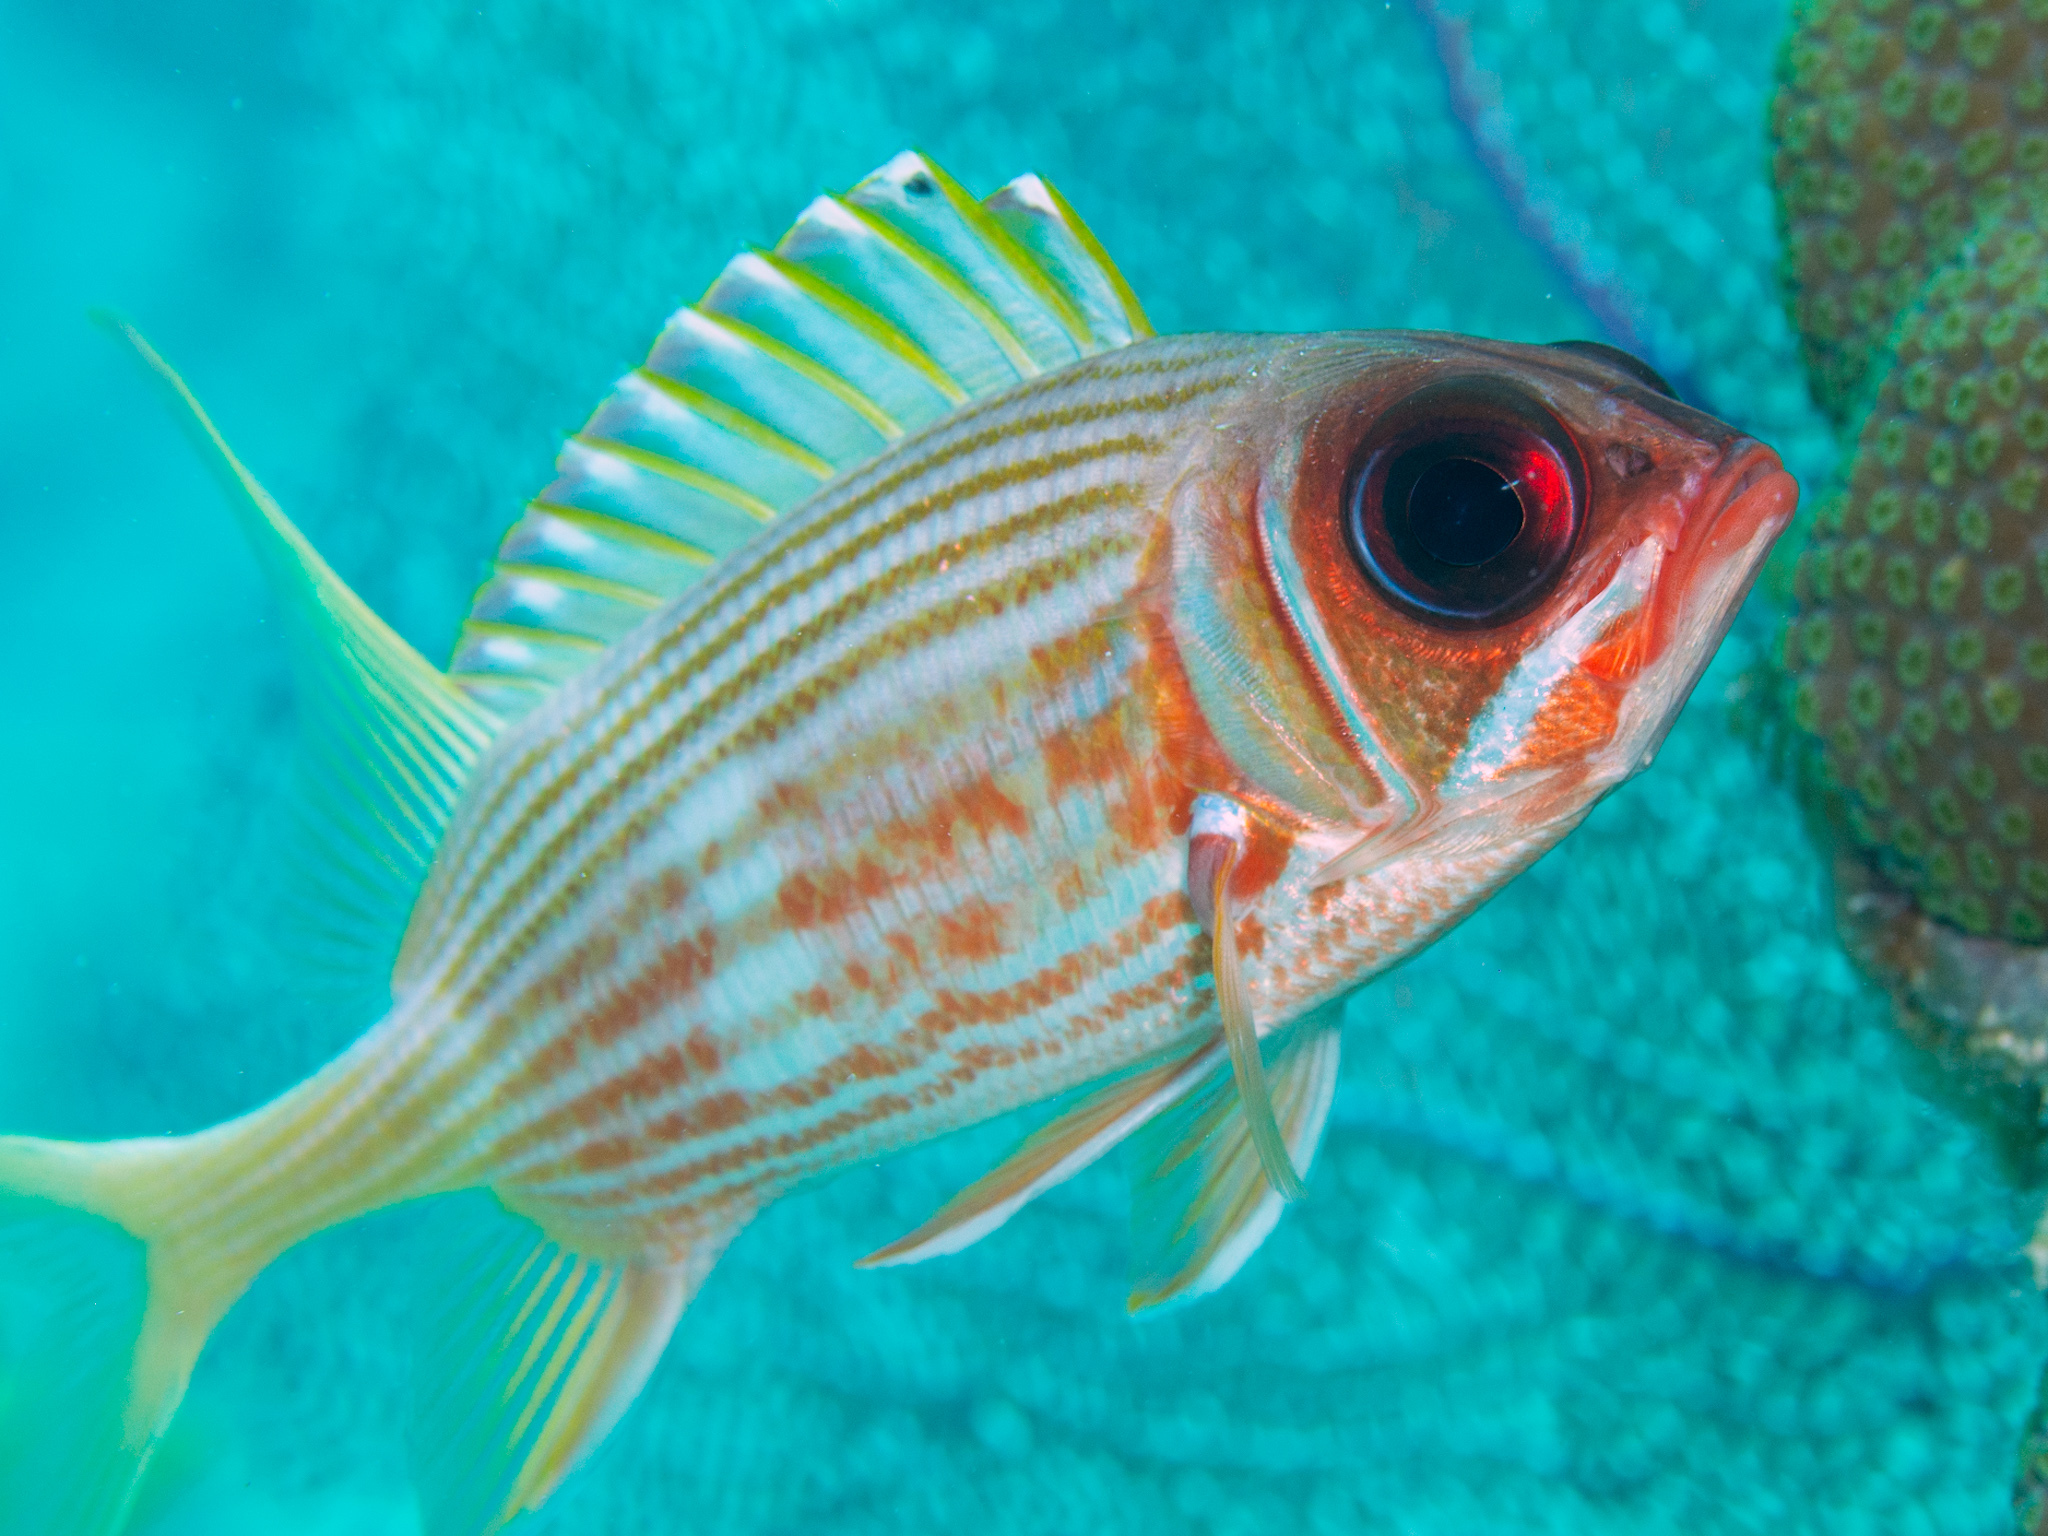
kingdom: Animalia
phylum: Chordata
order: Beryciformes
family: Holocentridae
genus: Holocentrus
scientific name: Holocentrus rufus
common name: Longspine squirrelfish
